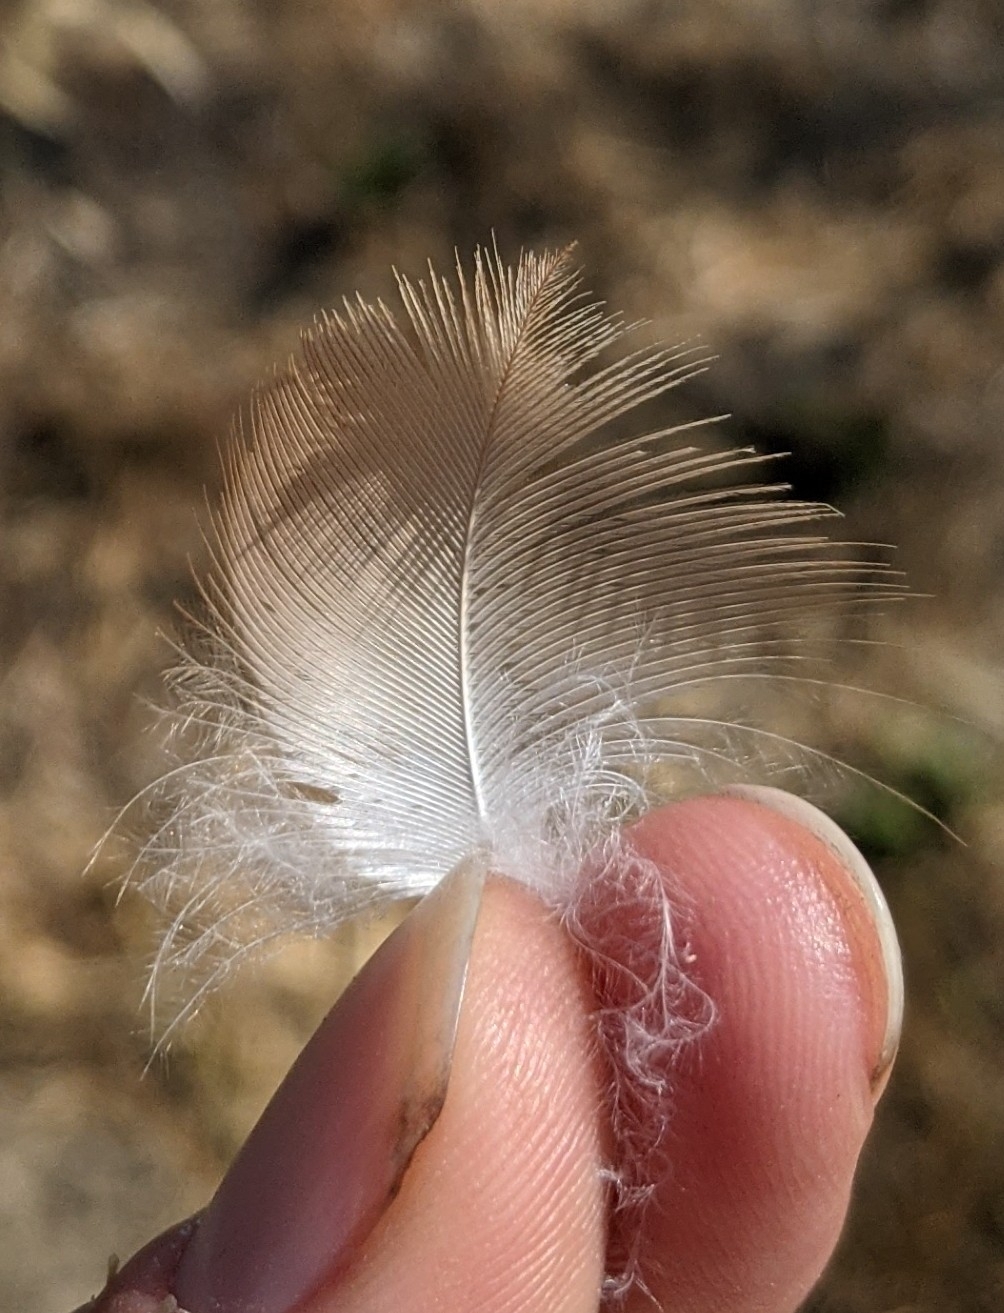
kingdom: Animalia
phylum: Chordata
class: Aves
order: Accipitriformes
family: Accipitridae
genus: Buteo
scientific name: Buteo lineatus
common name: Red-shouldered hawk
